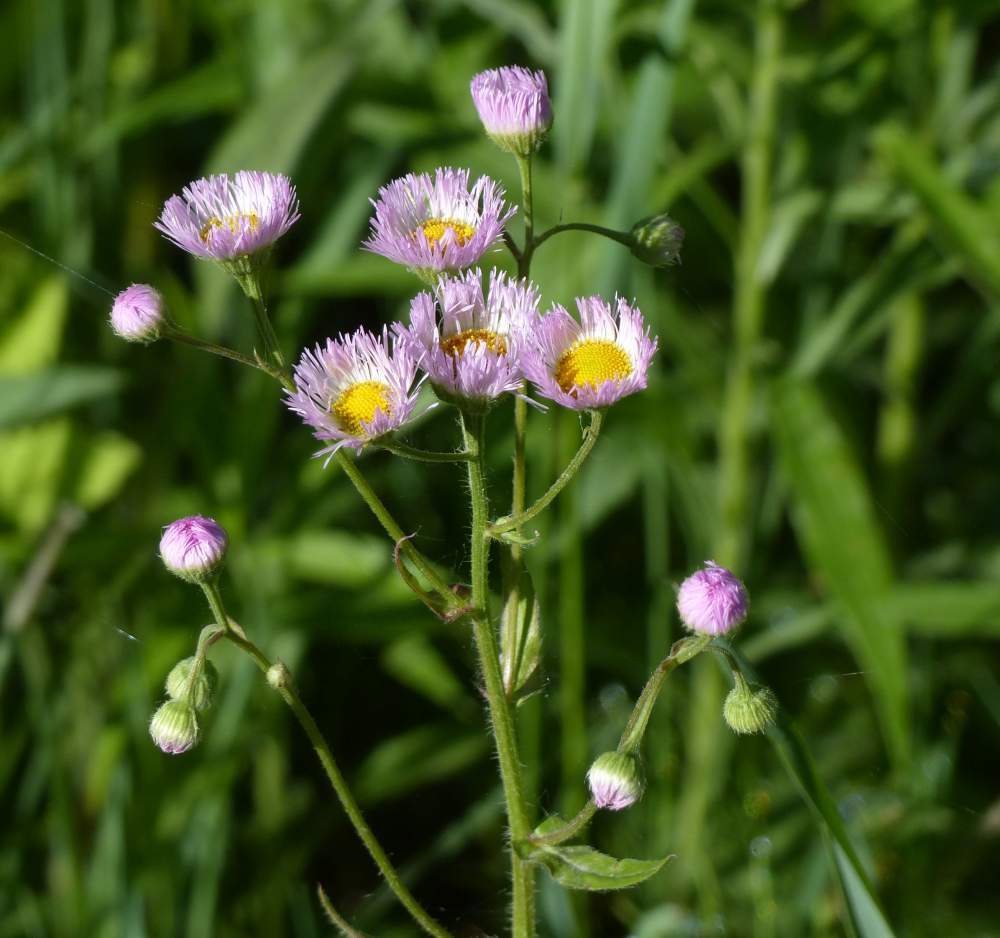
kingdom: Plantae
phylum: Tracheophyta
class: Magnoliopsida
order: Asterales
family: Asteraceae
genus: Erigeron
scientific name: Erigeron philadelphicus
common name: Robin's-plantain
